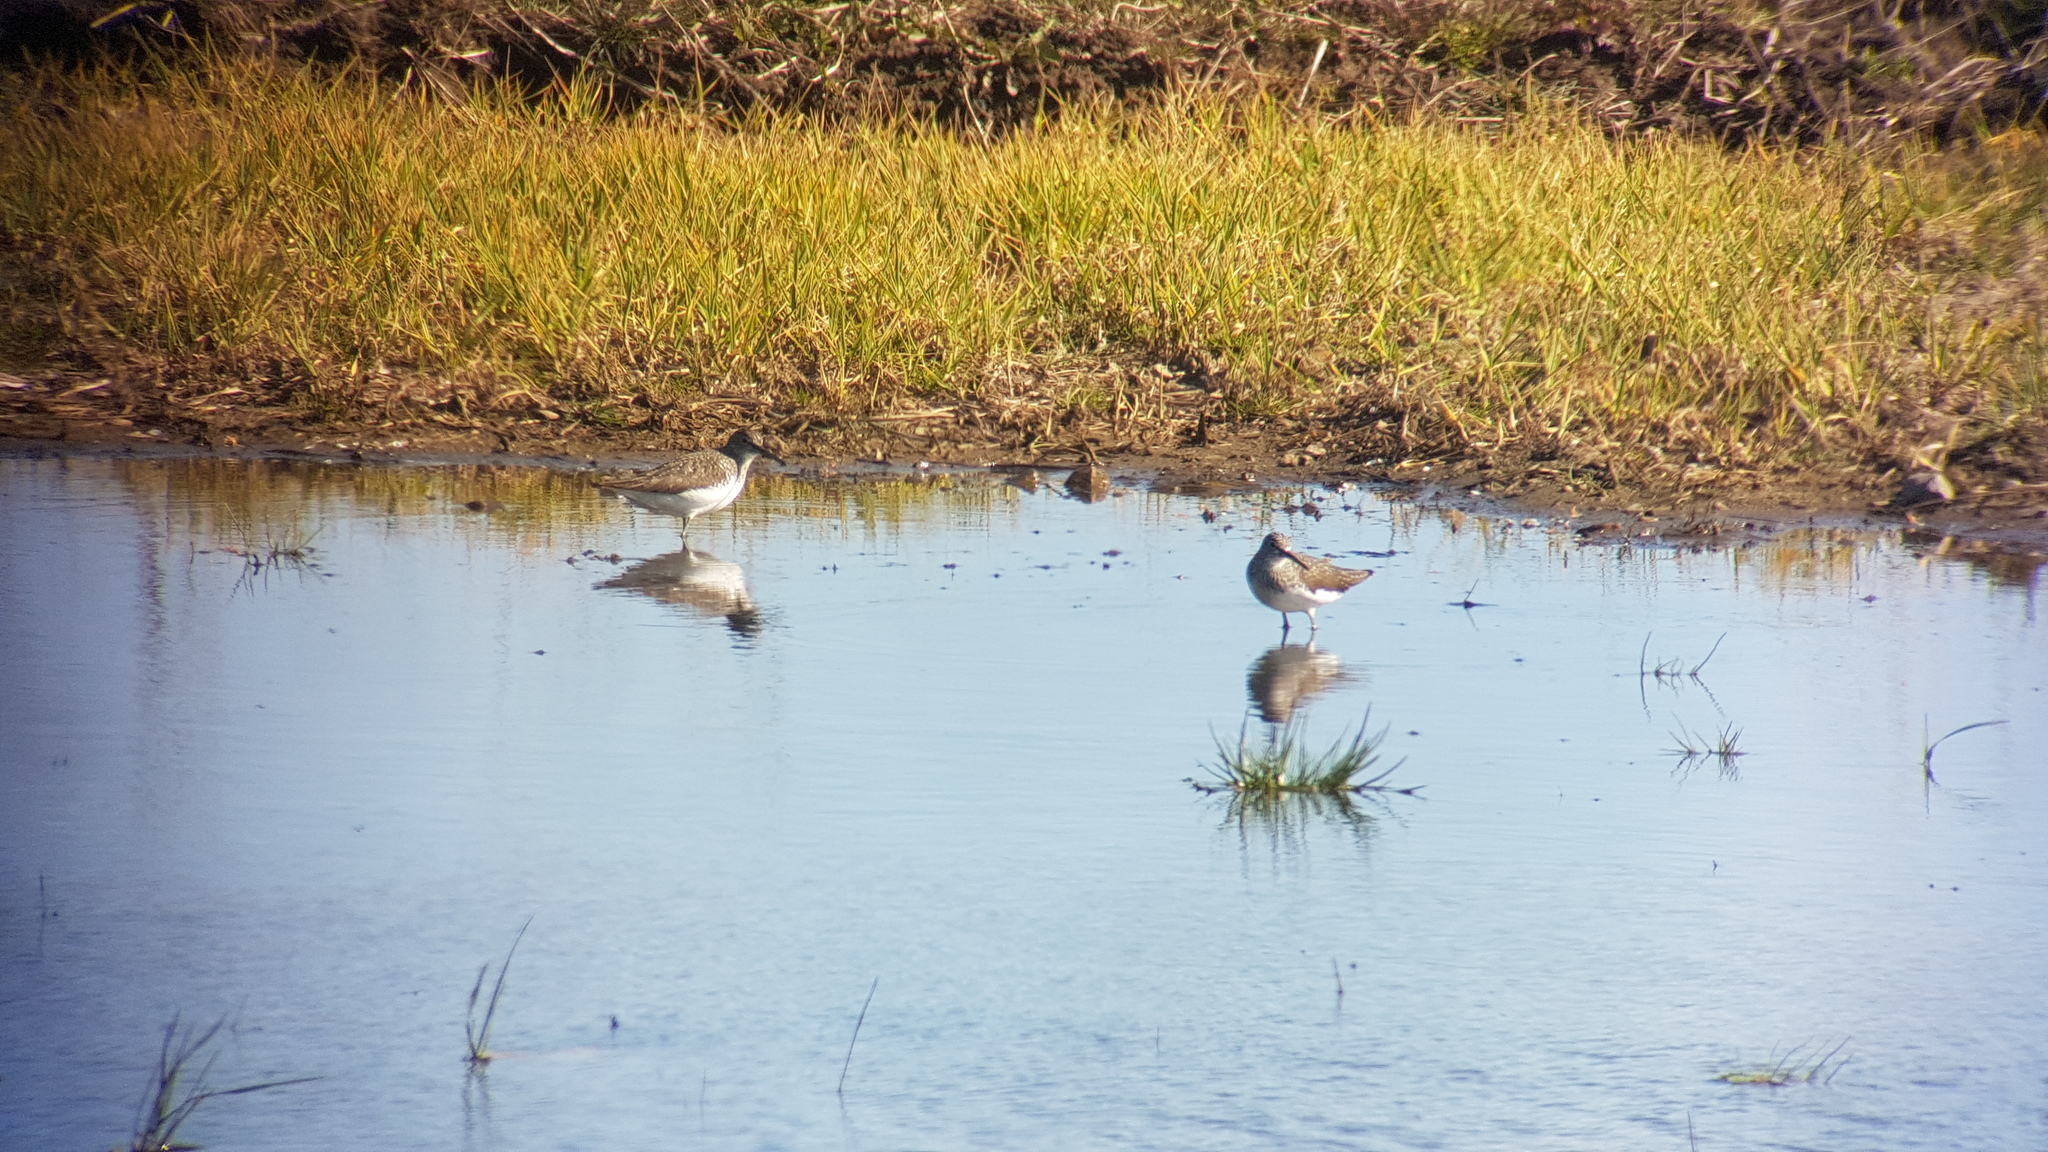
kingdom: Animalia
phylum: Chordata
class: Aves
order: Charadriiformes
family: Scolopacidae
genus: Tringa
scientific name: Tringa ochropus
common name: Green sandpiper
